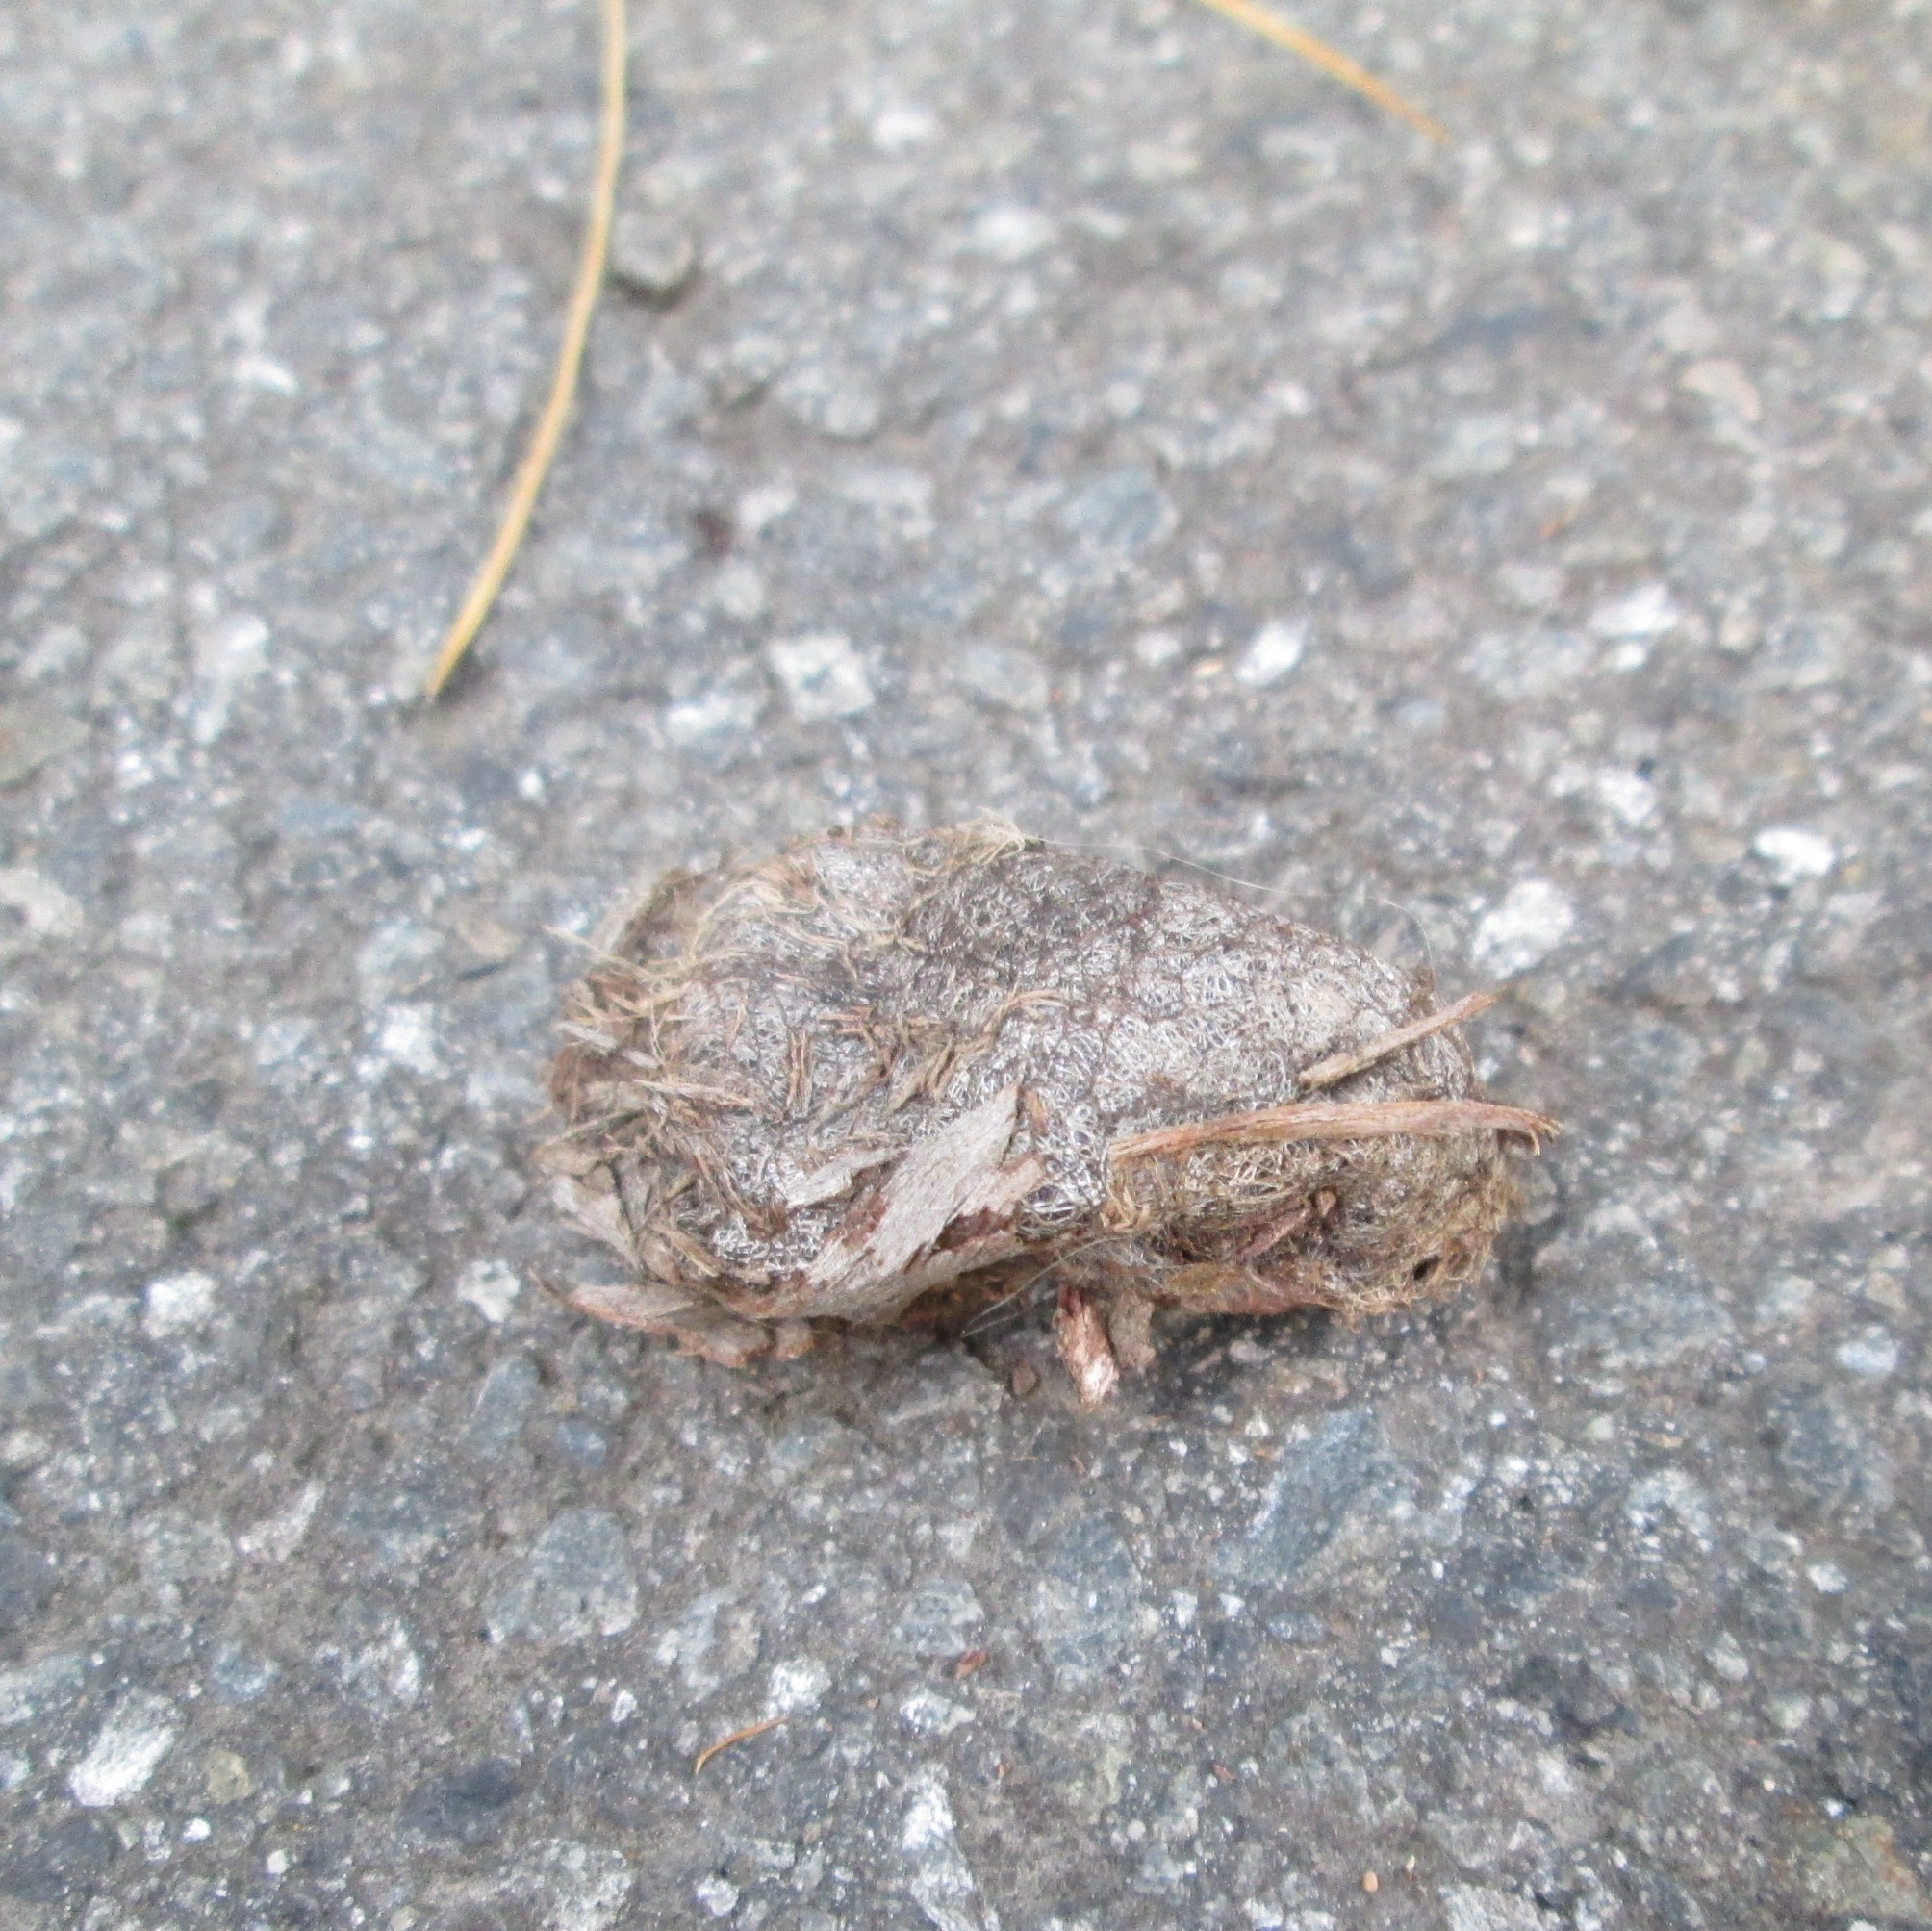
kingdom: Animalia
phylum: Arthropoda
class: Insecta
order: Lepidoptera
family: Saturniidae
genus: Opodiphthera
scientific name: Opodiphthera
